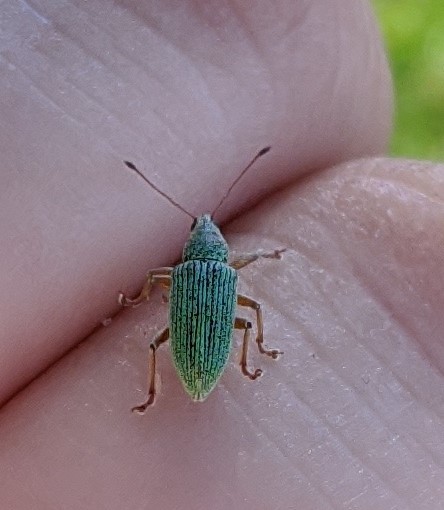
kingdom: Animalia
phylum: Arthropoda
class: Insecta
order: Coleoptera
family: Curculionidae
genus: Polydrusus
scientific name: Polydrusus formosus
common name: Weevil
